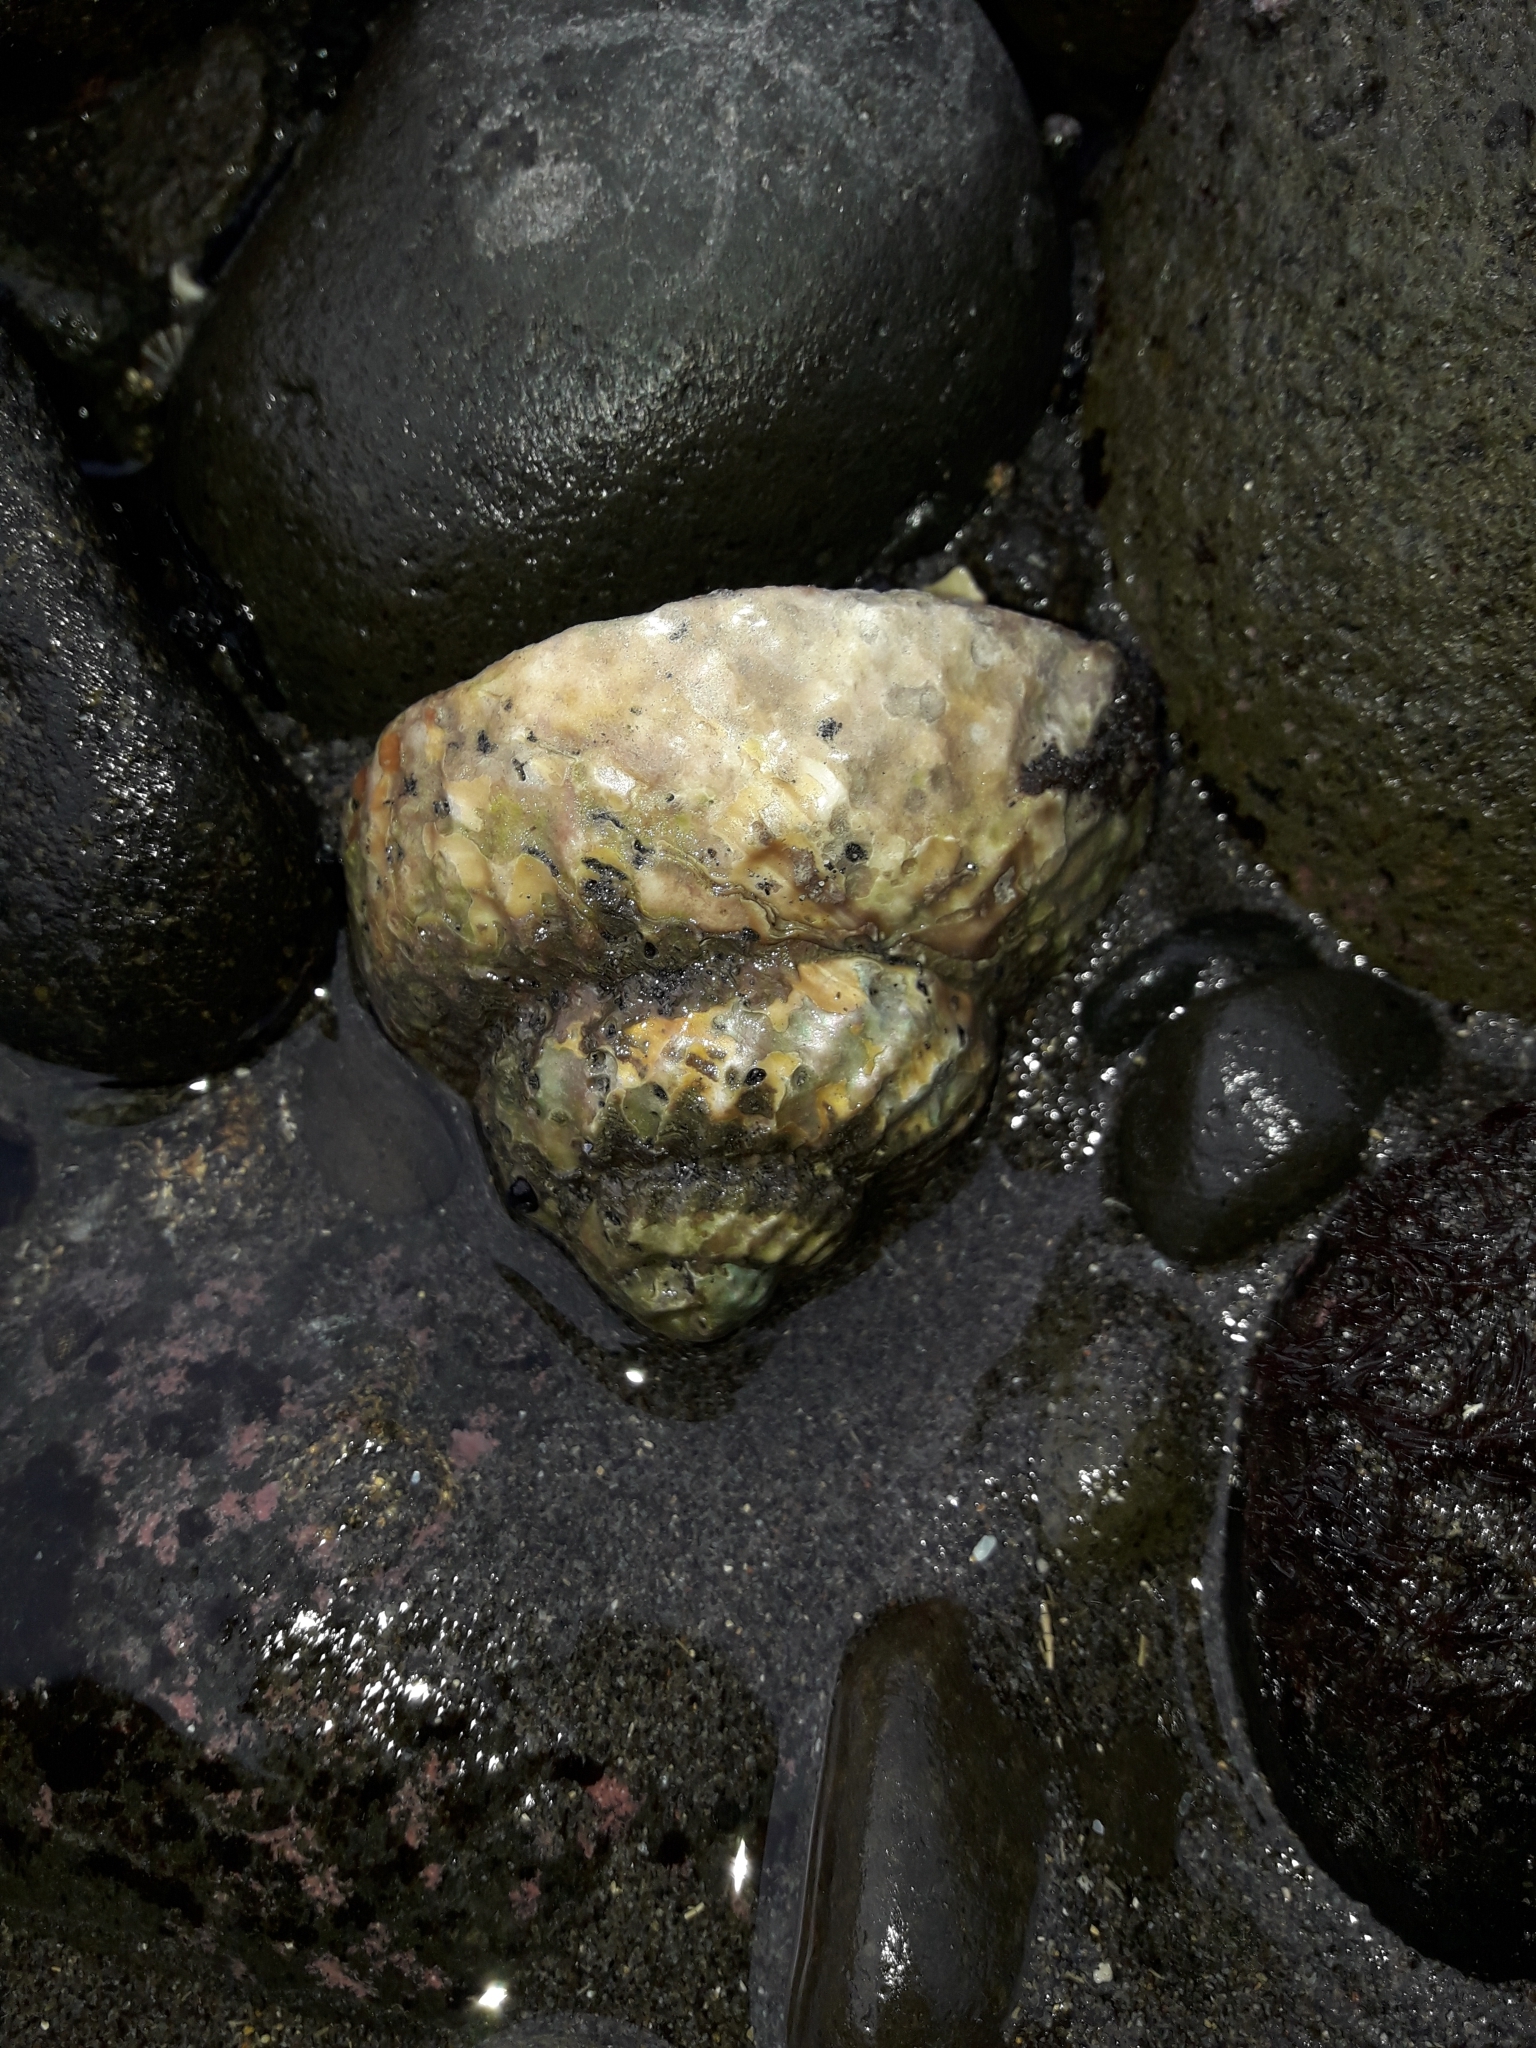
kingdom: Animalia
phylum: Mollusca
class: Gastropoda
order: Trochida
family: Turbinidae
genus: Cookia
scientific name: Cookia sulcata
